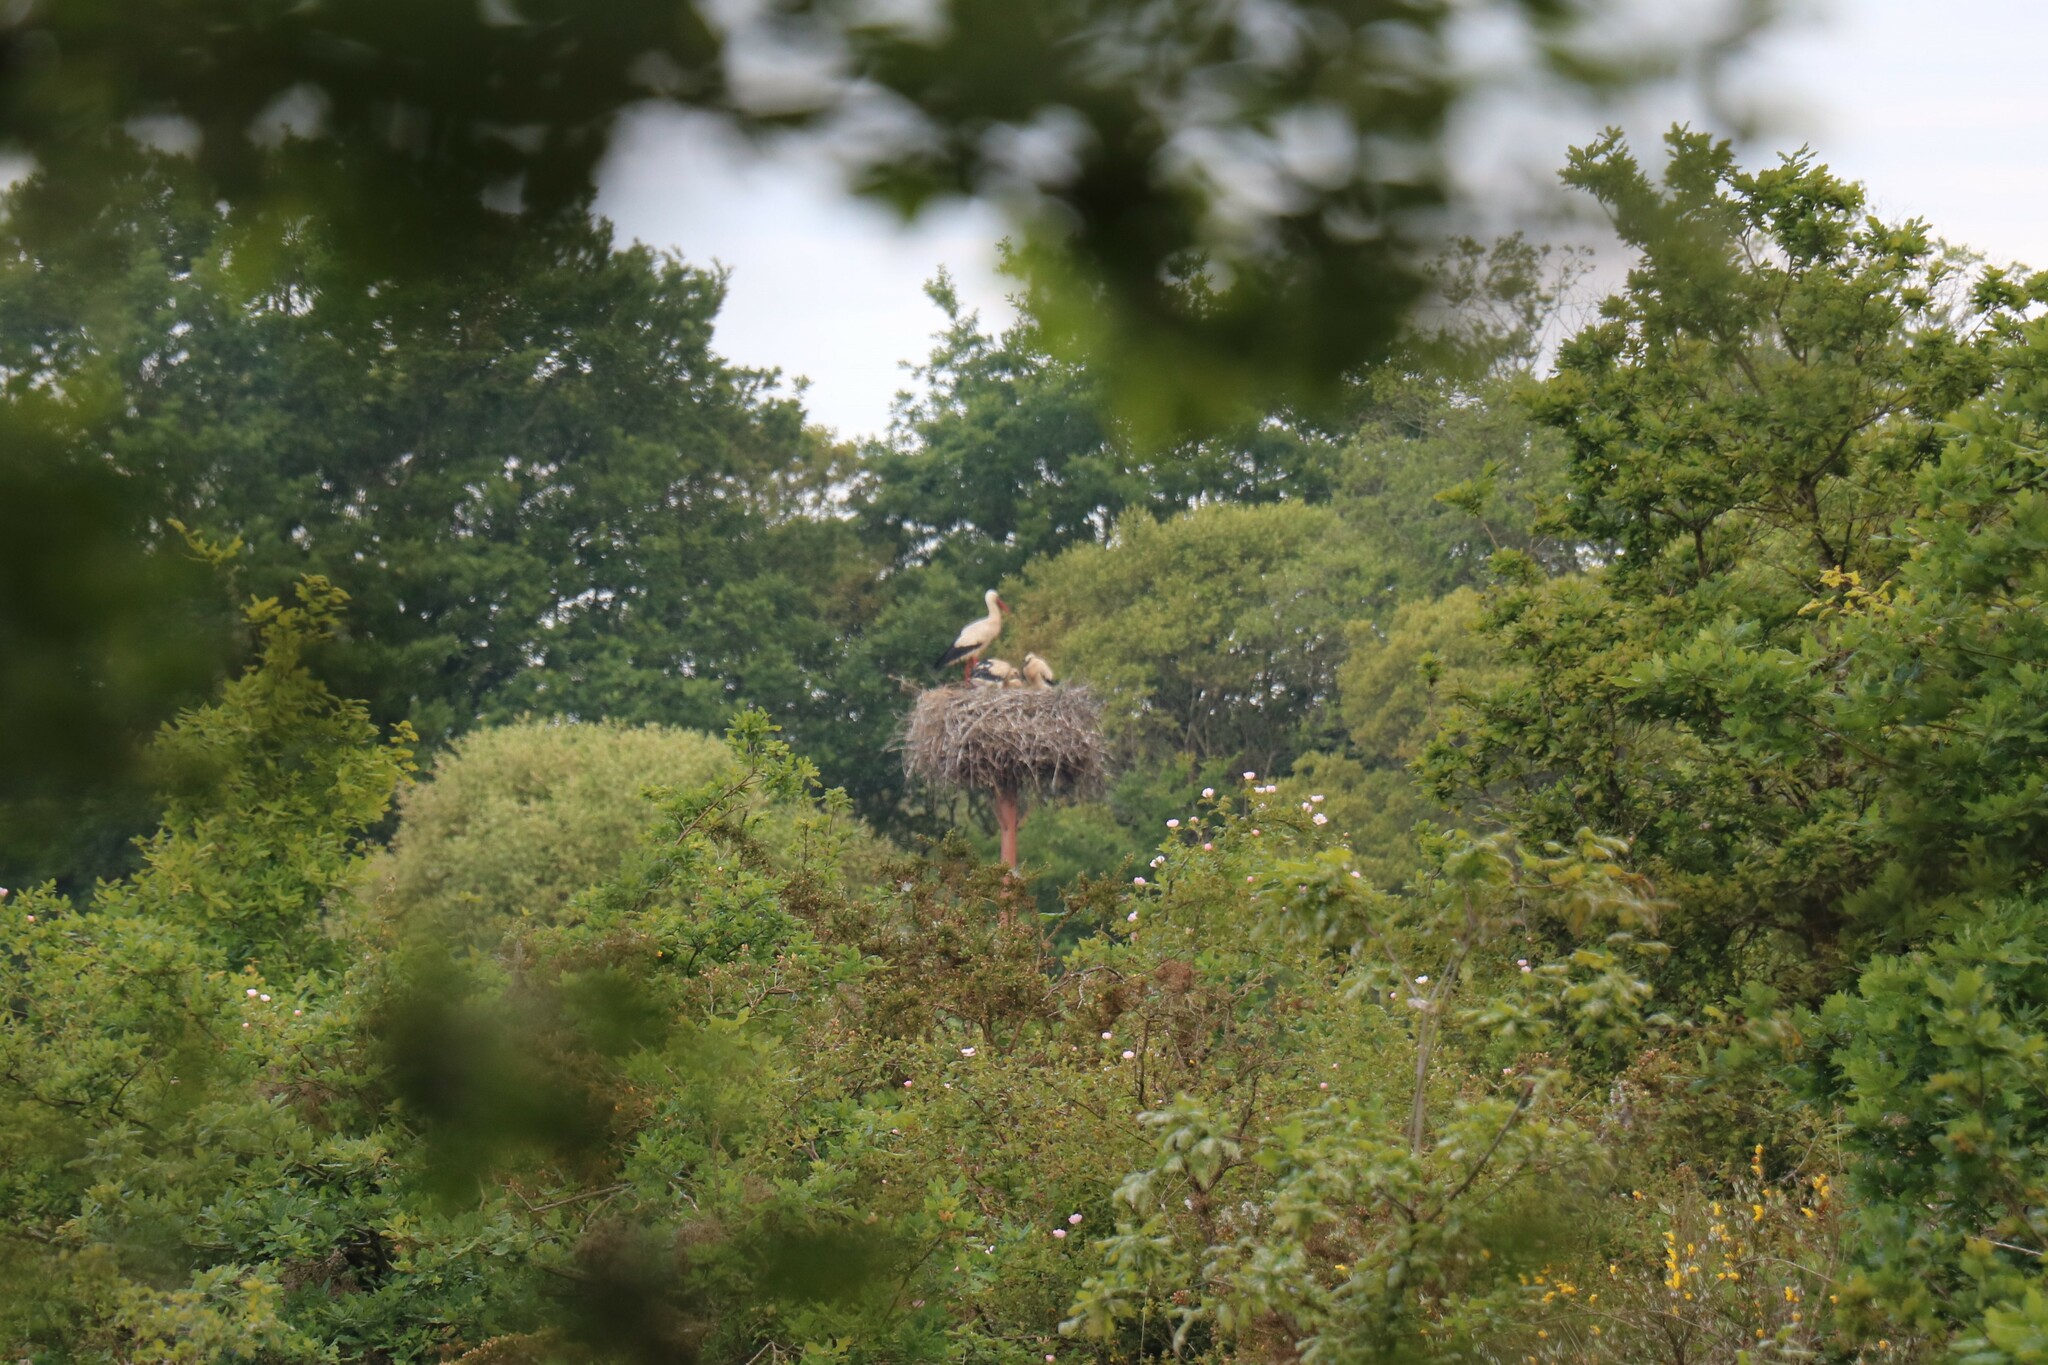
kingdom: Animalia
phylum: Chordata
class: Aves
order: Ciconiiformes
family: Ciconiidae
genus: Ciconia
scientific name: Ciconia ciconia
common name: White stork
